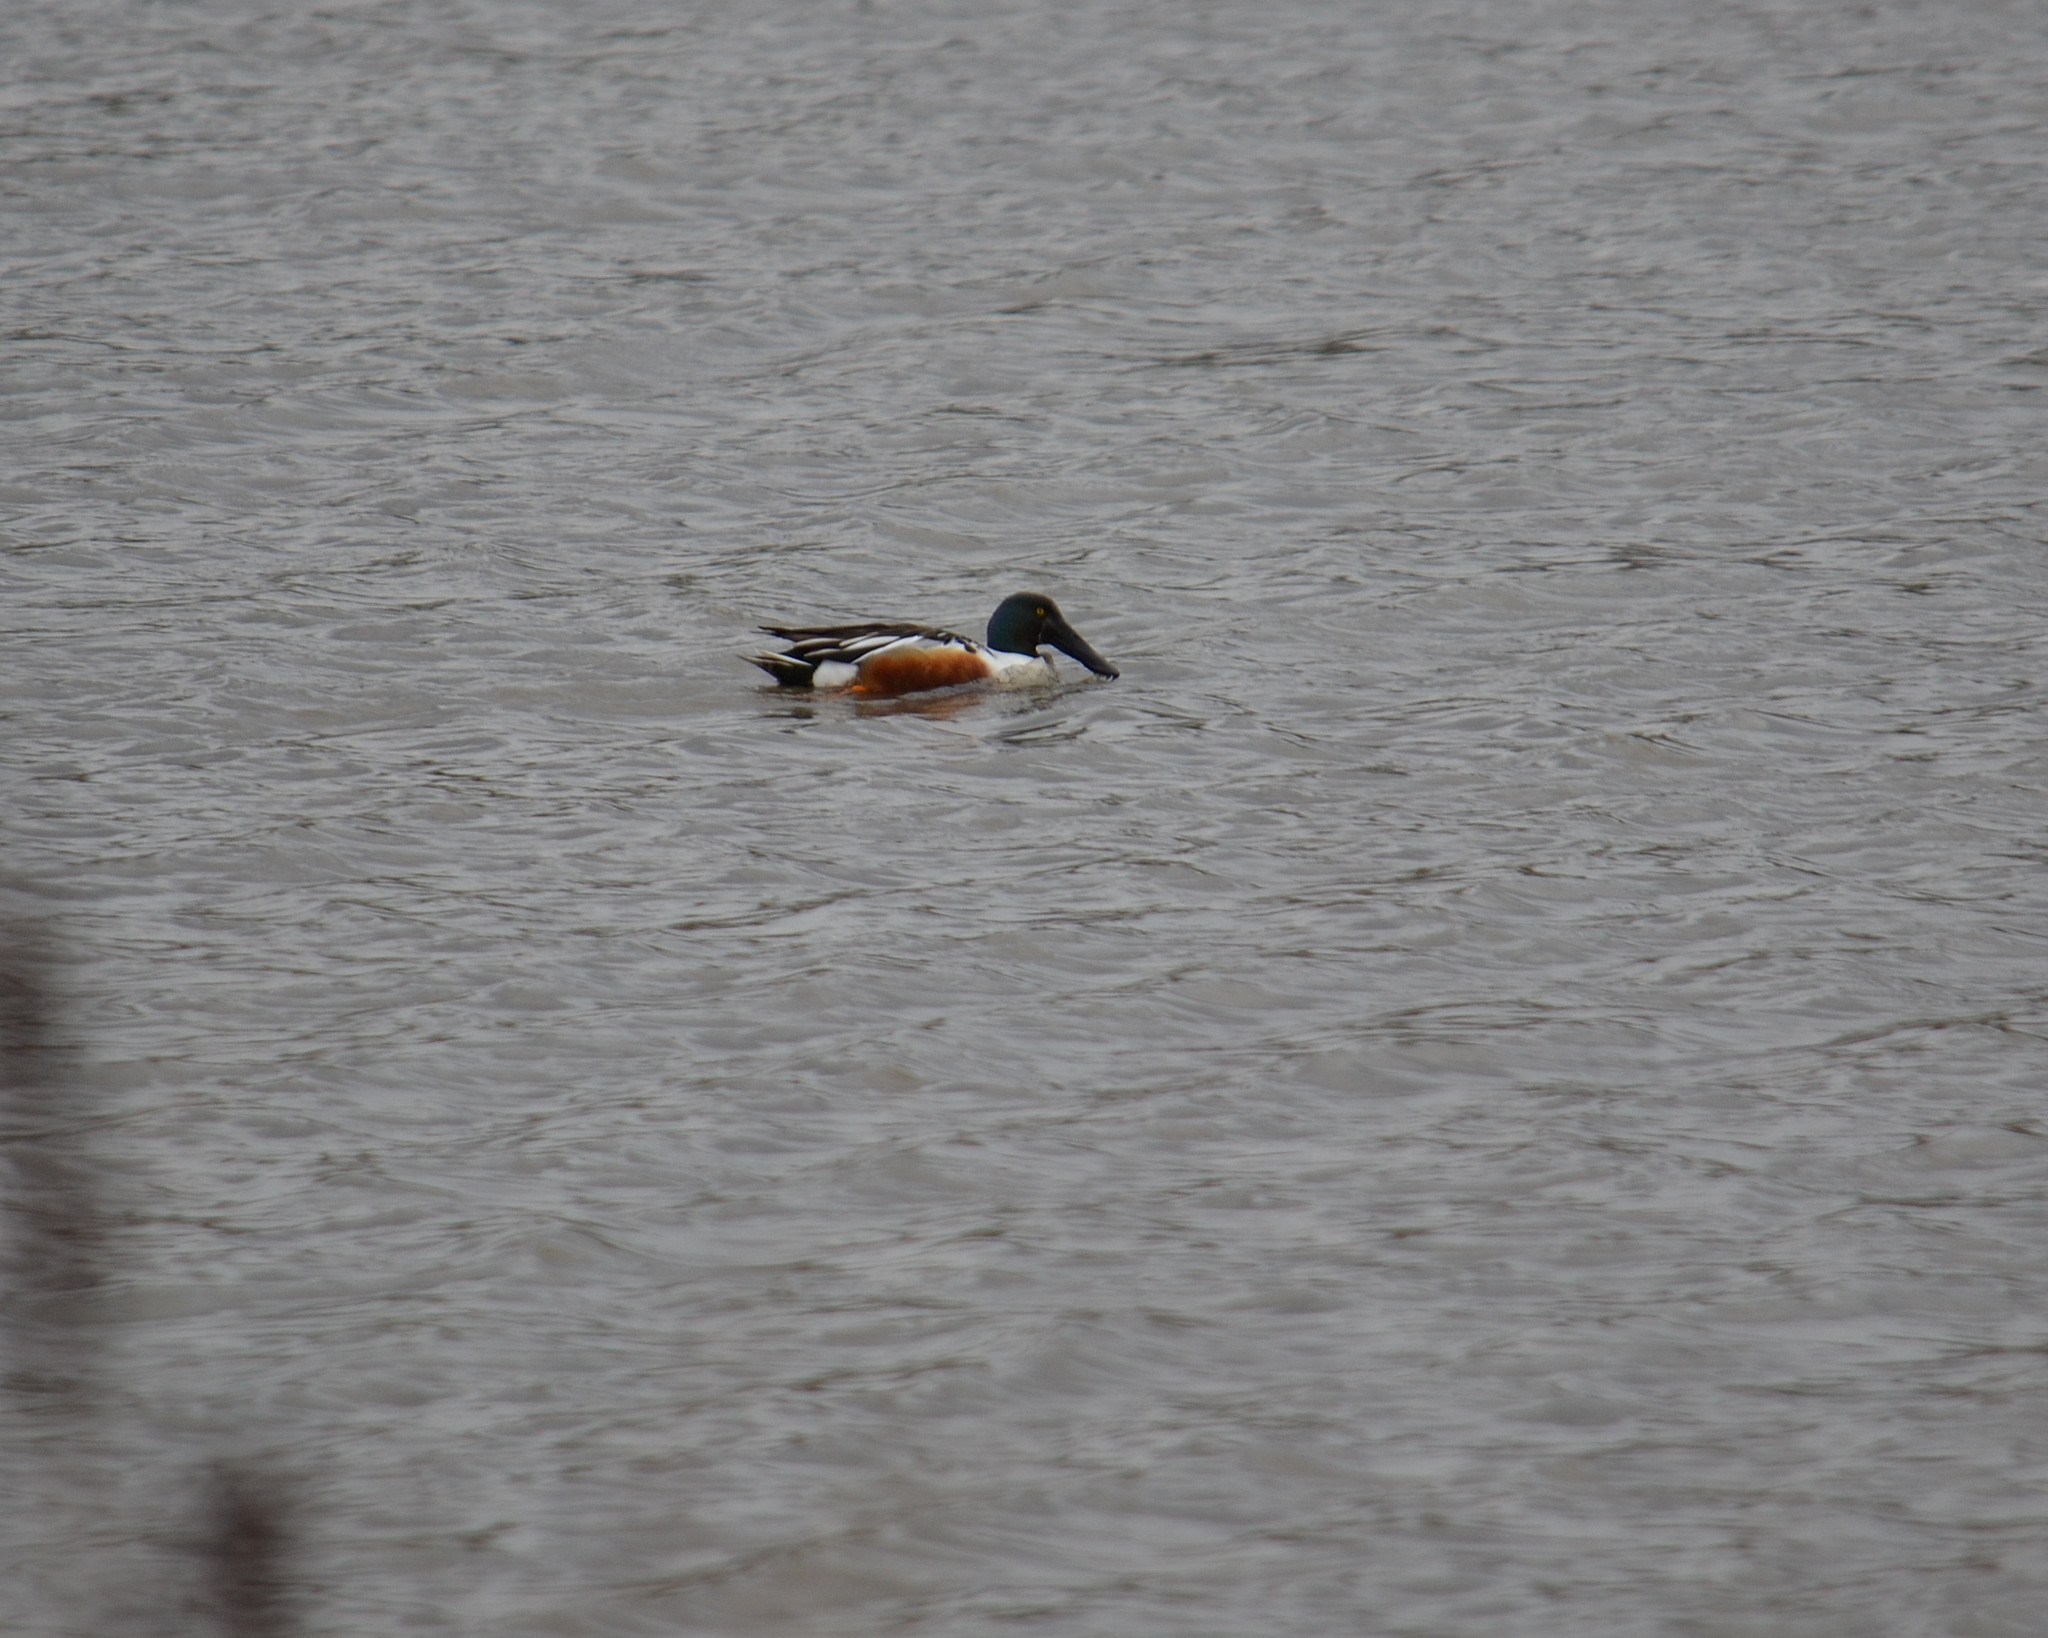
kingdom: Animalia
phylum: Chordata
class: Aves
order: Anseriformes
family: Anatidae
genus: Spatula
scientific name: Spatula clypeata
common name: Northern shoveler
